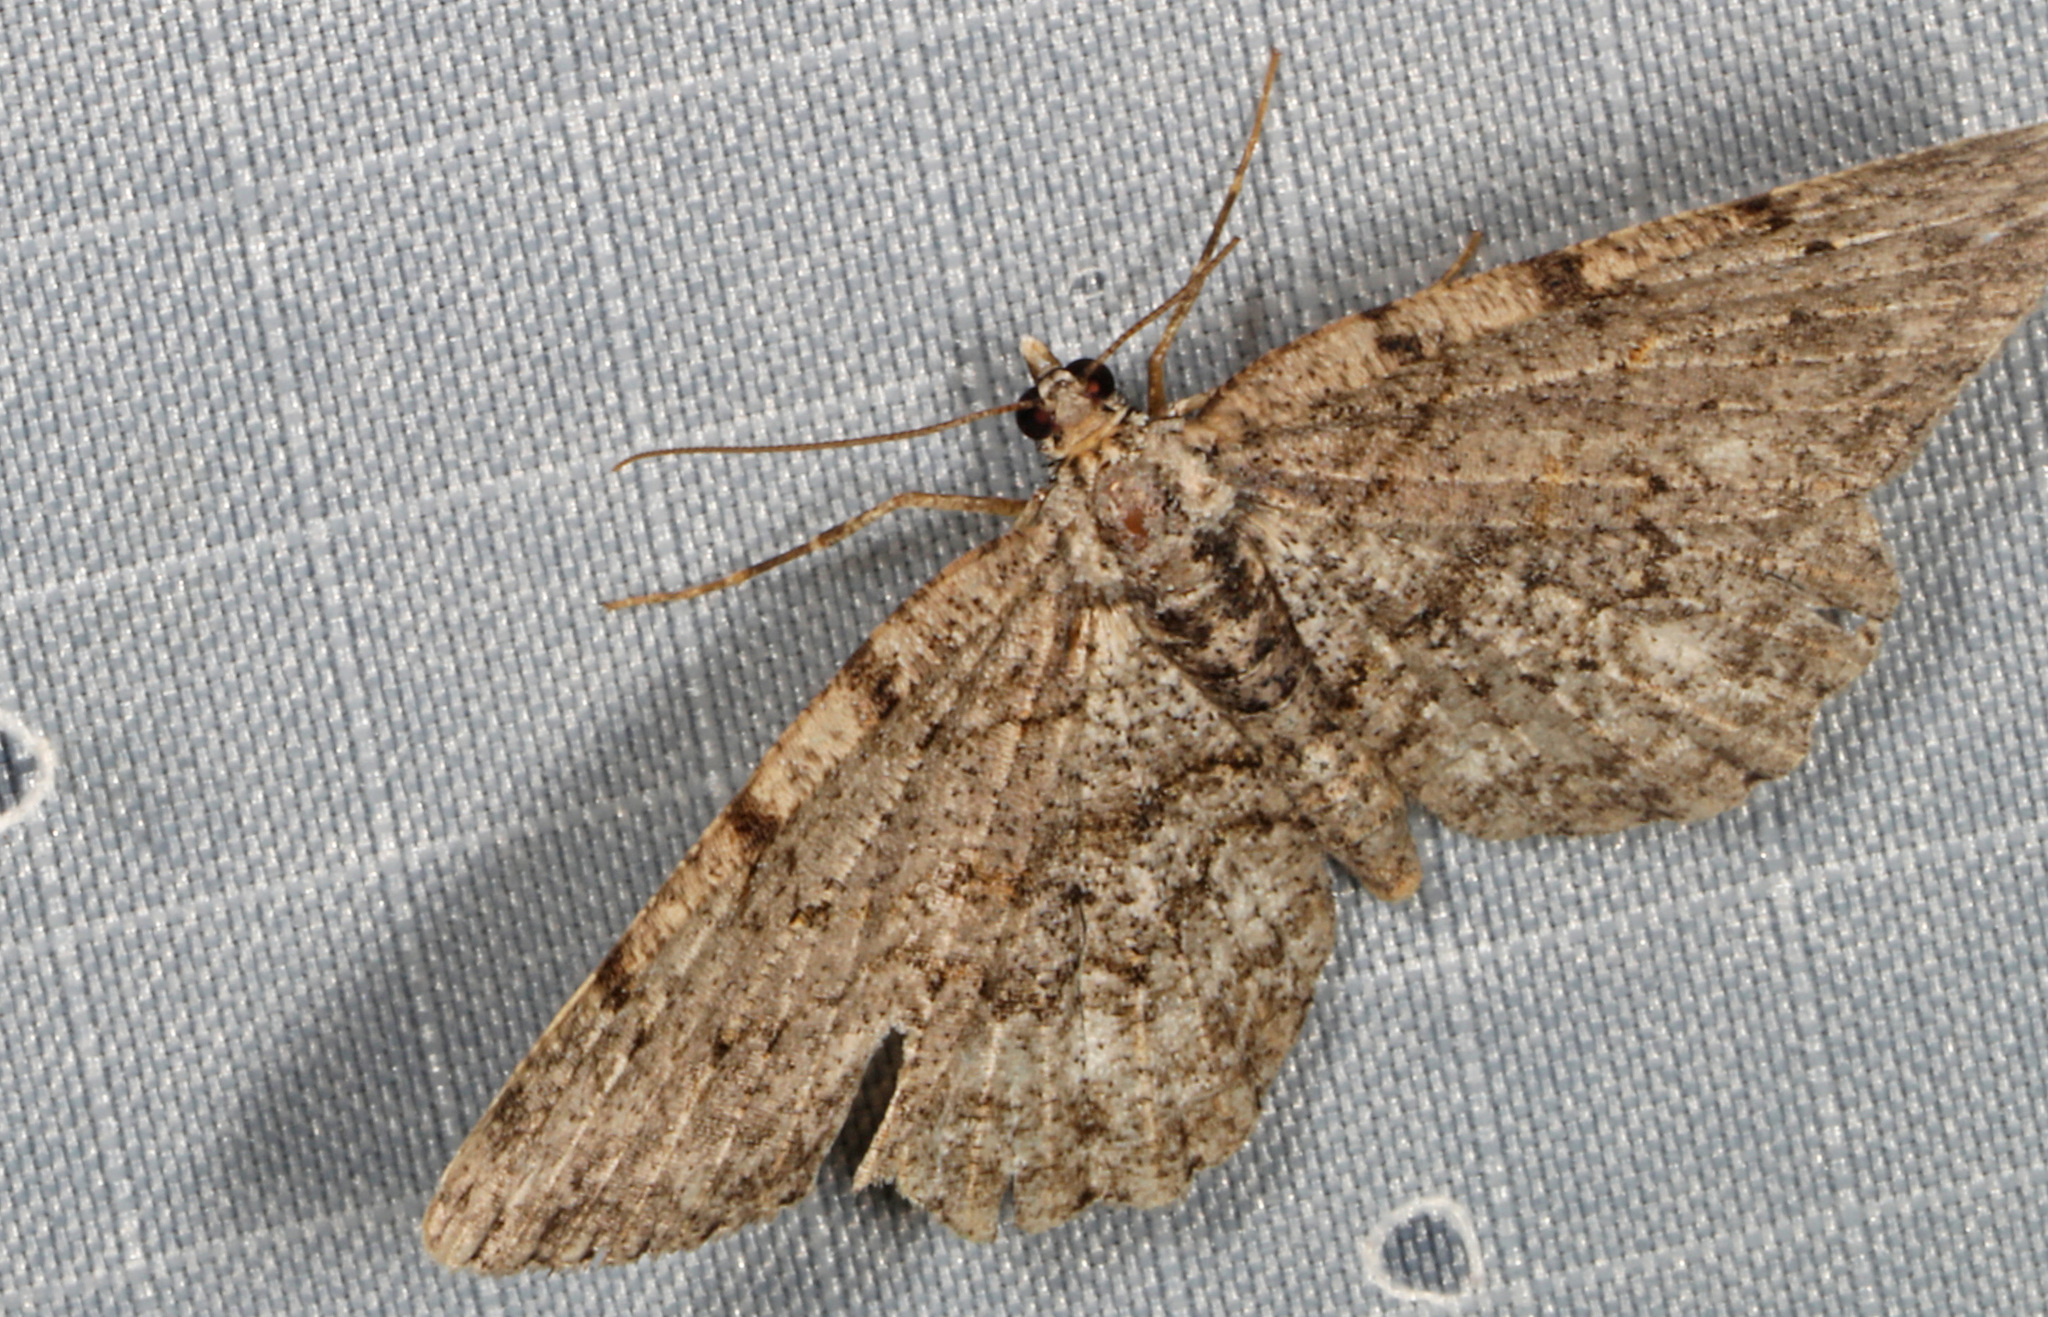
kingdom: Animalia
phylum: Arthropoda
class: Insecta
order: Lepidoptera
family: Geometridae
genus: Protoboarmia
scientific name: Protoboarmia porcelaria
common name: Porcelain gray
